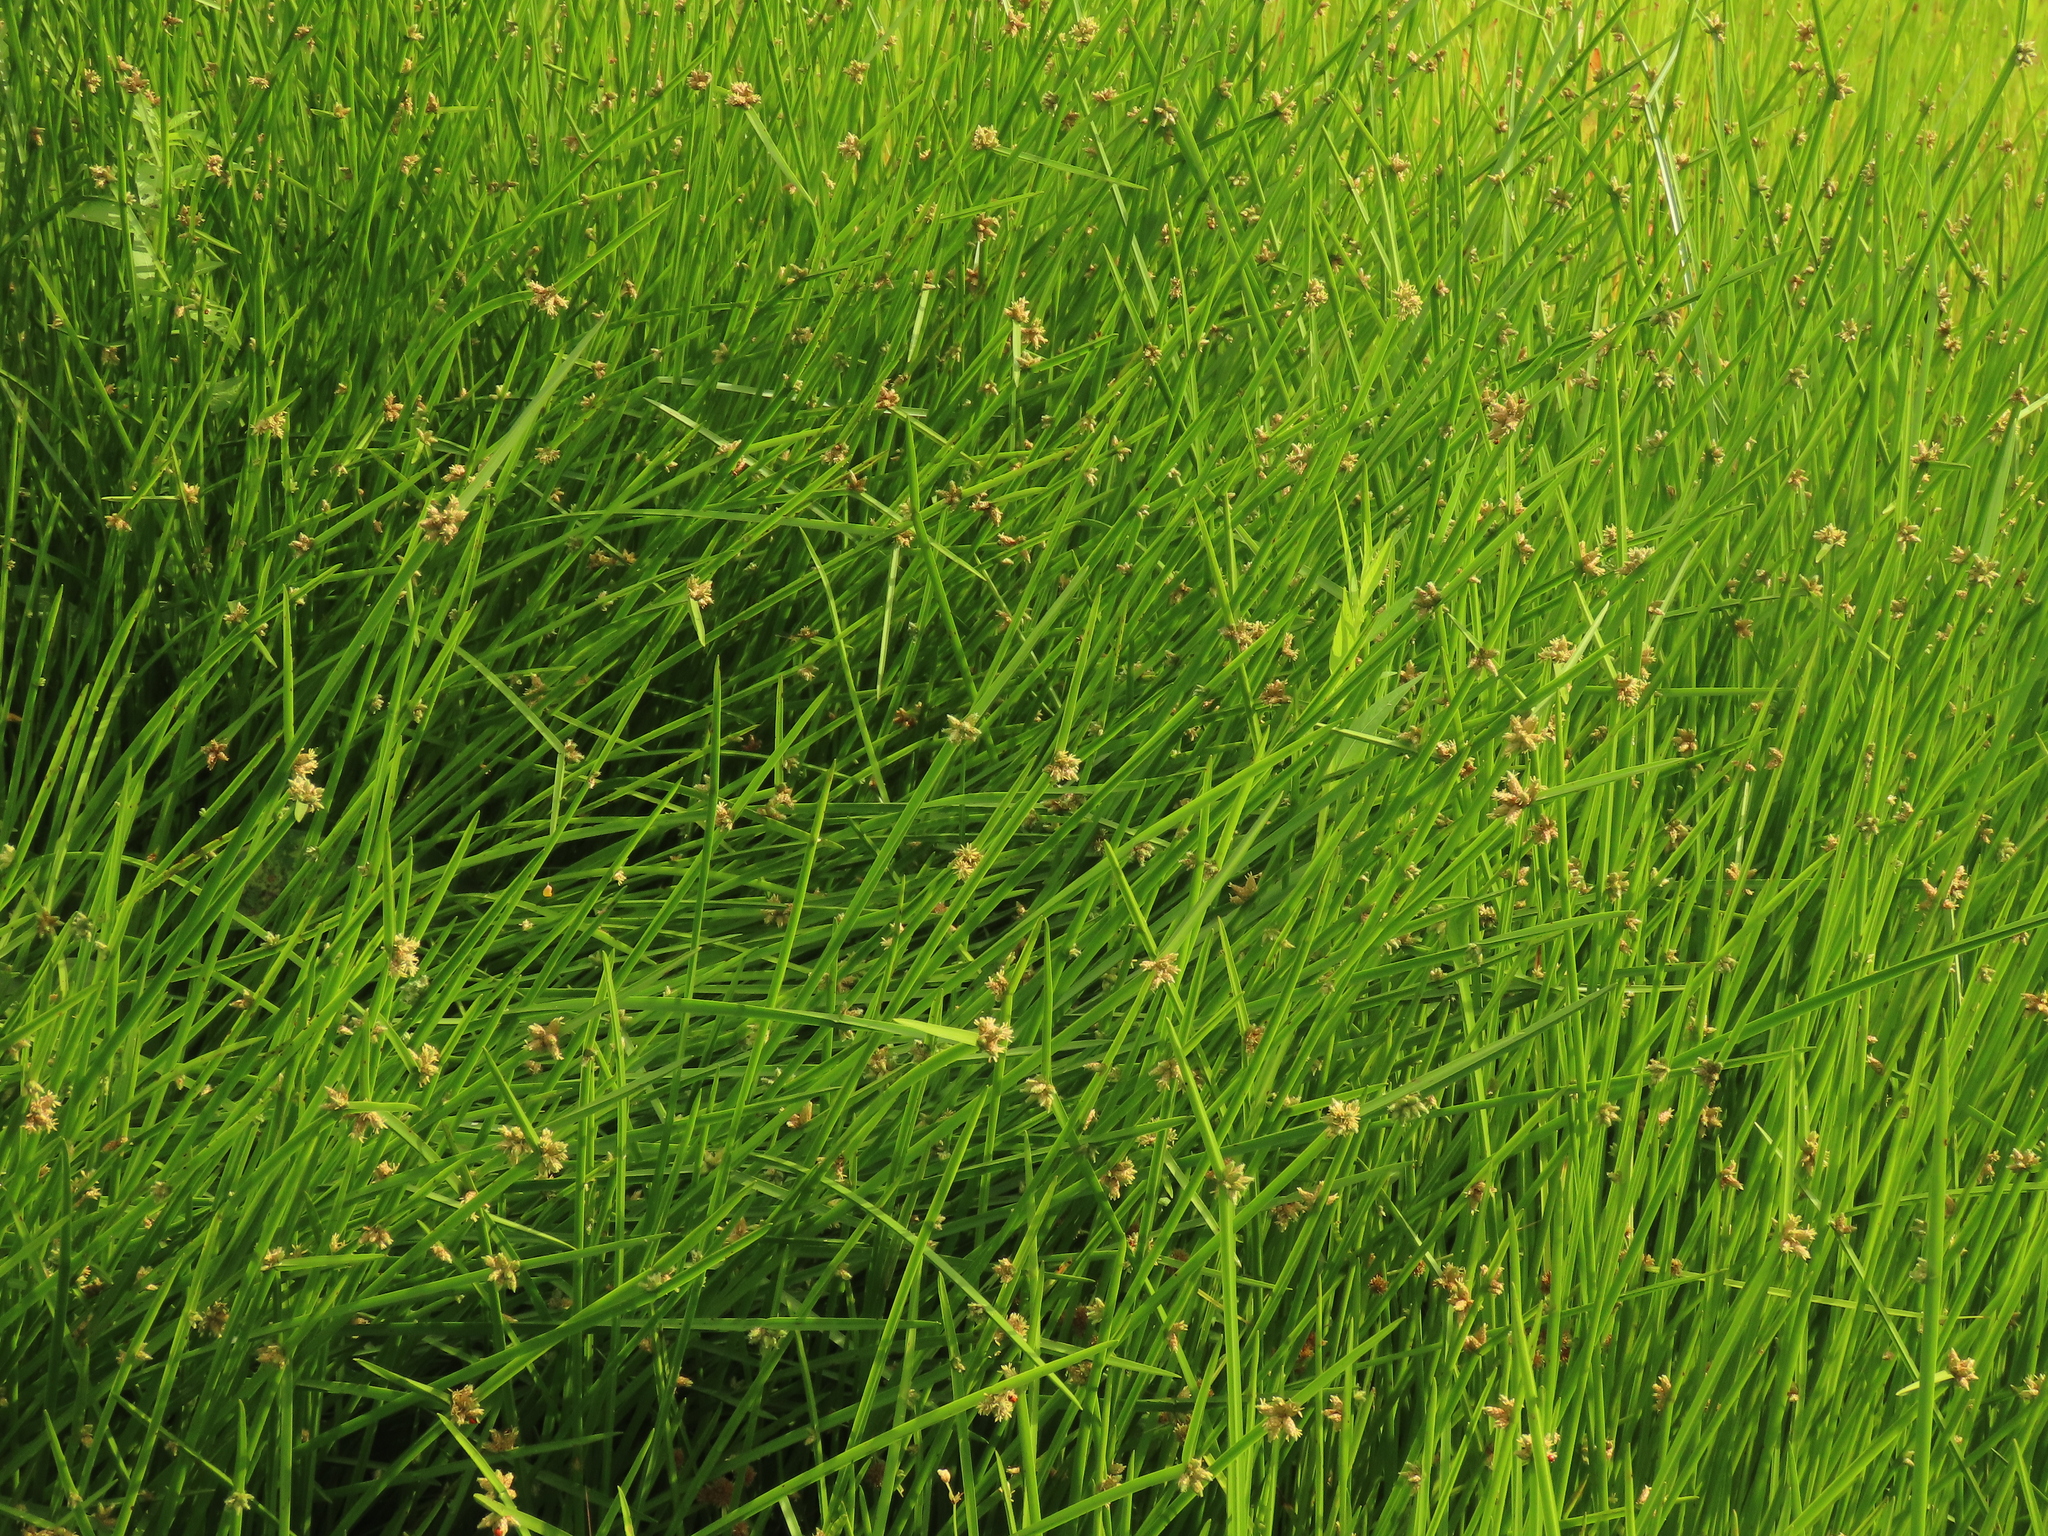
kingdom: Plantae
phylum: Tracheophyta
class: Liliopsida
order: Poales
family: Cyperaceae
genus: Schoenoplectiella
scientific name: Schoenoplectiella mucronata
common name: Bog bulrush
